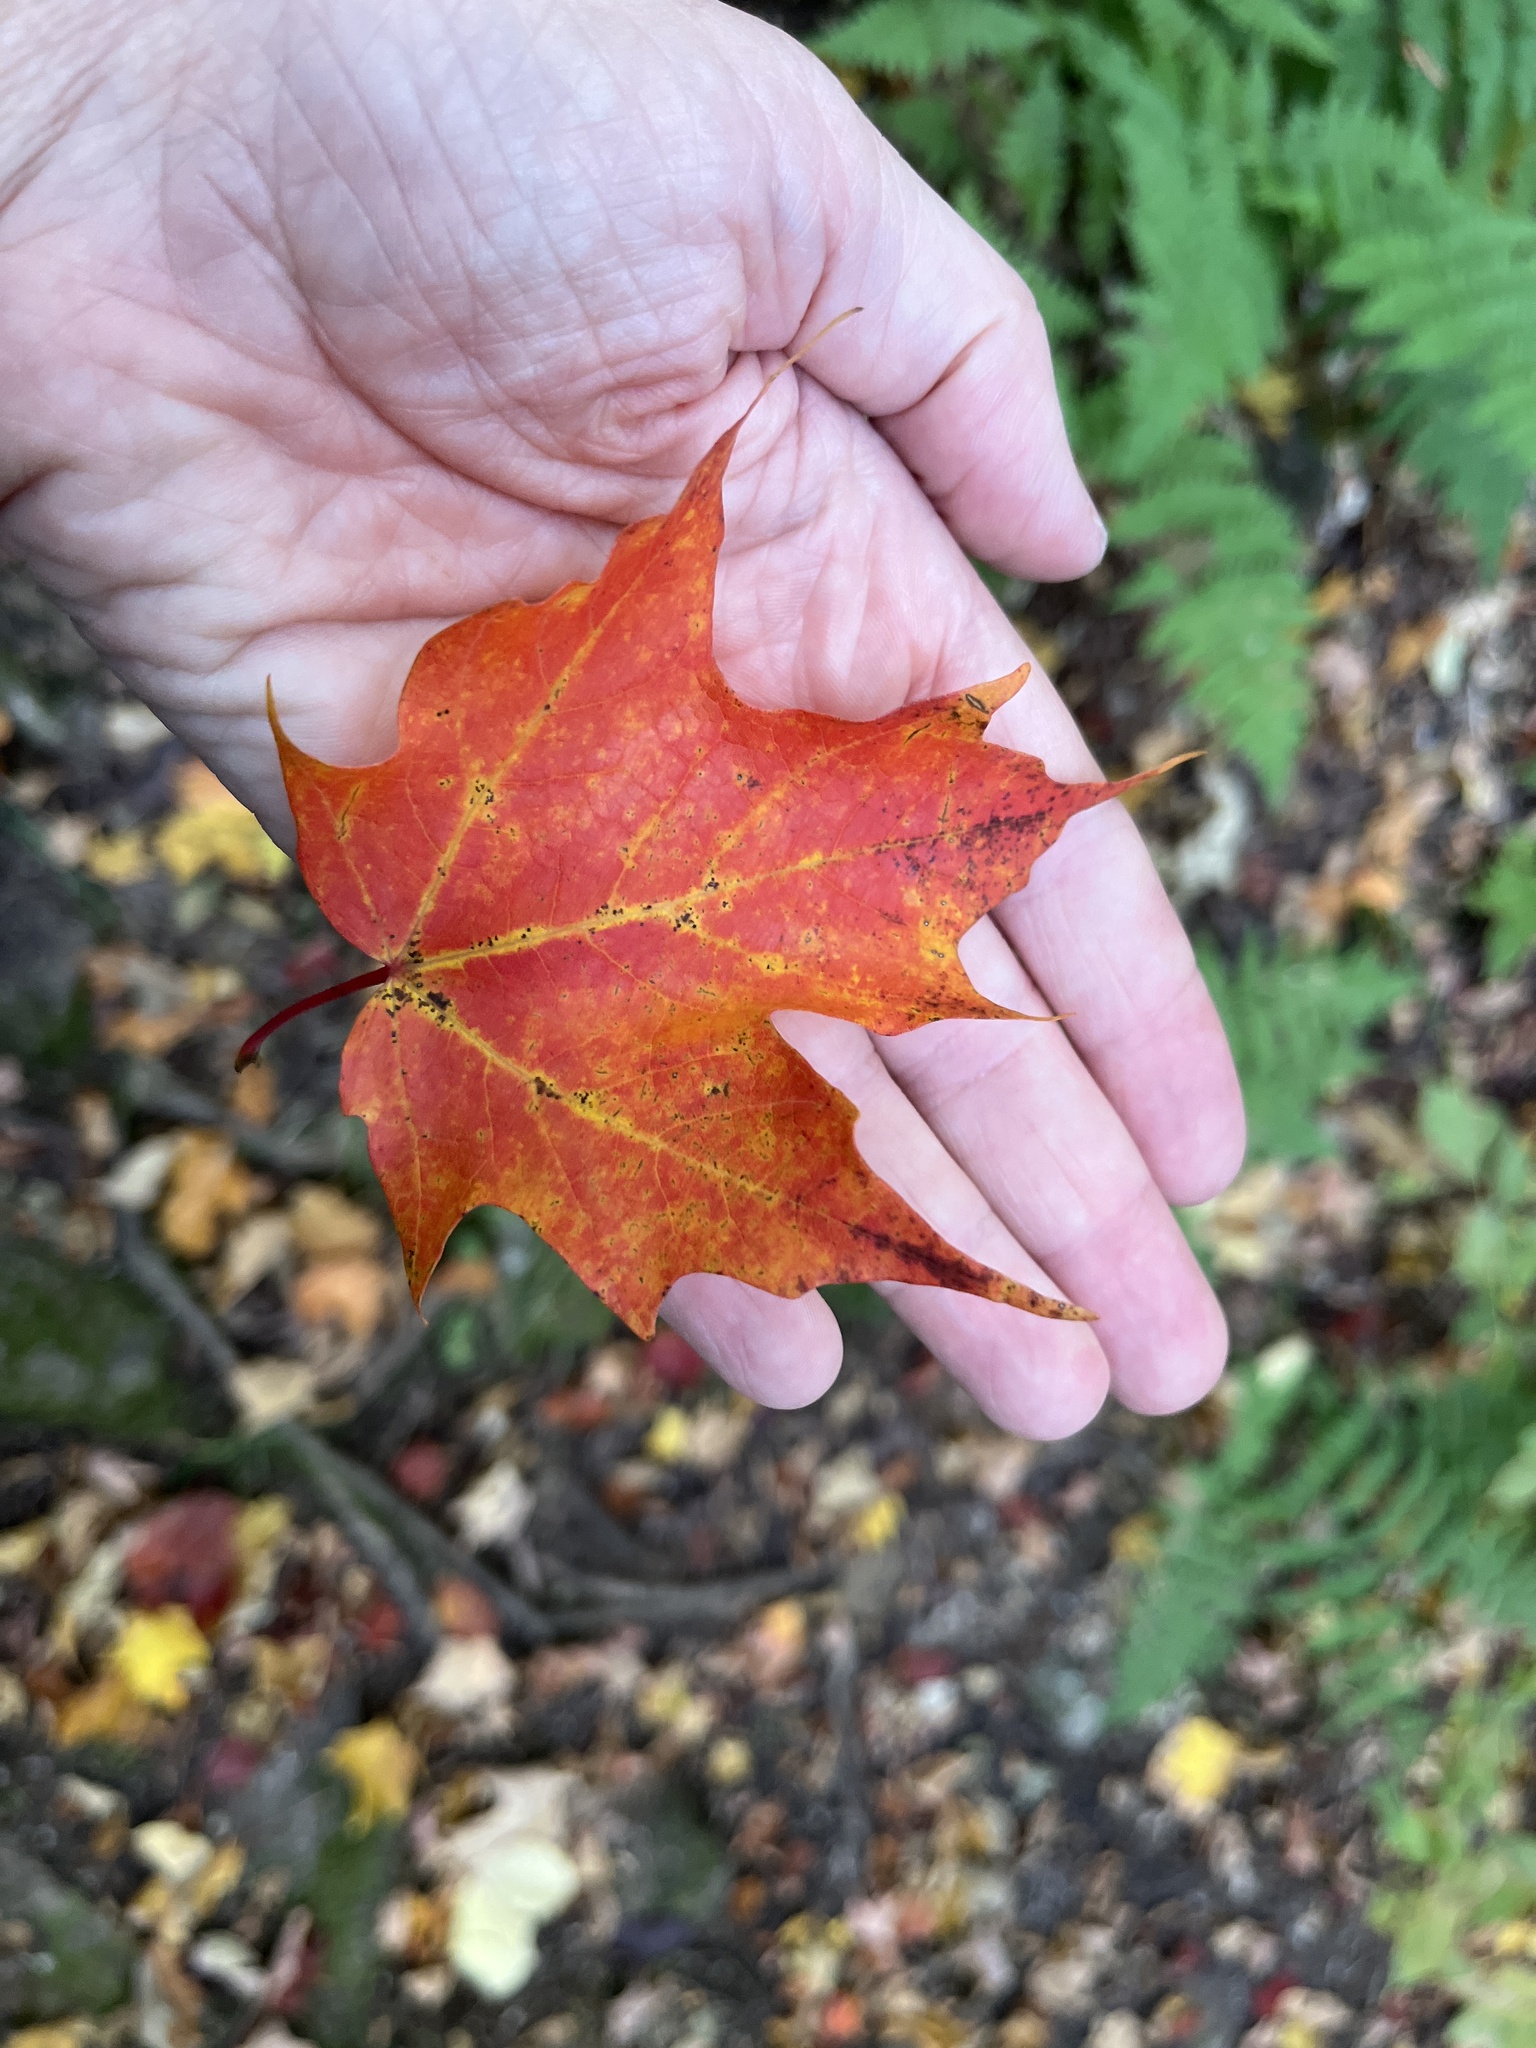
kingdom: Plantae
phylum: Tracheophyta
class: Magnoliopsida
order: Sapindales
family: Sapindaceae
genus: Acer
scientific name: Acer saccharum
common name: Sugar maple
